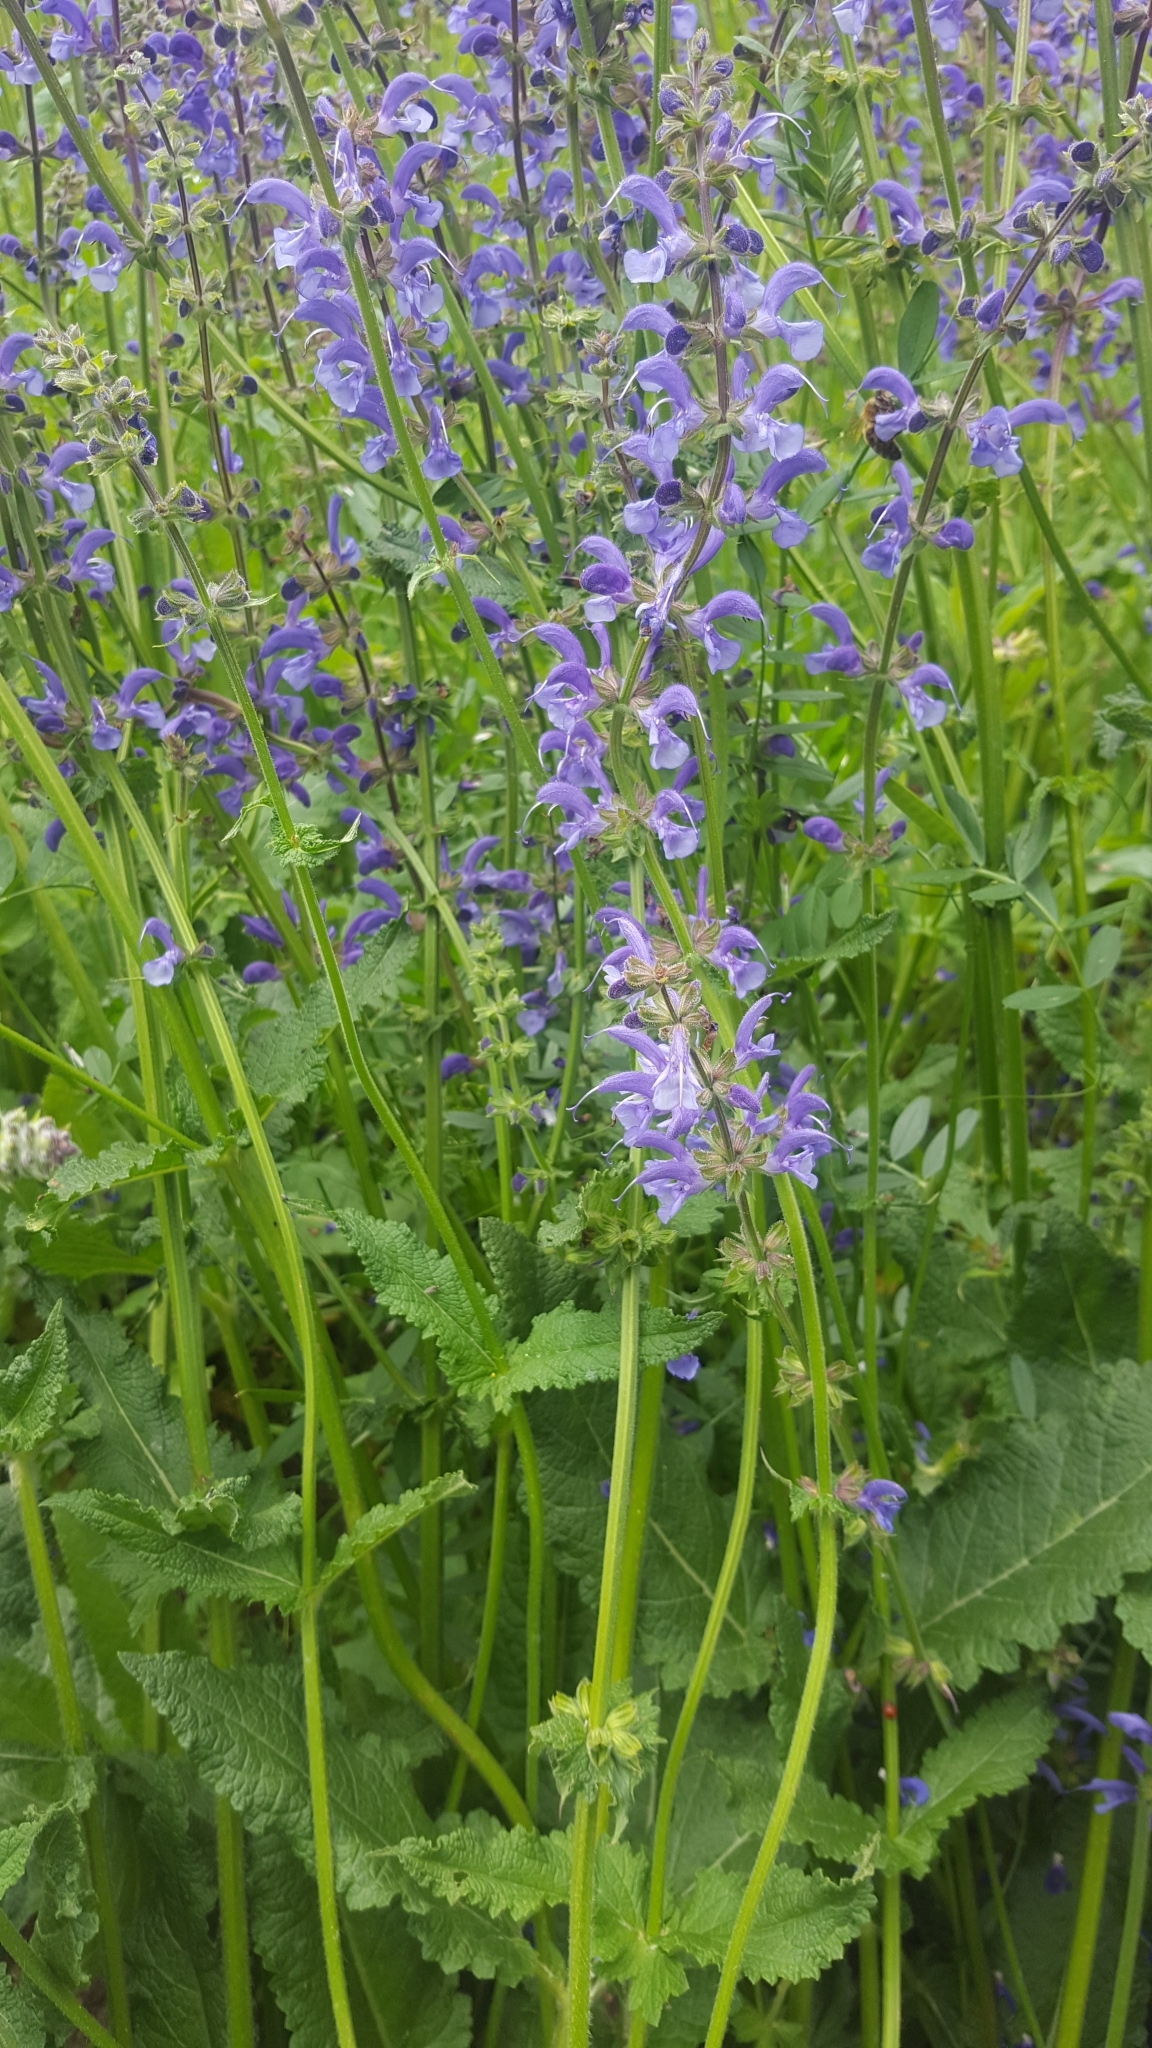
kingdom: Plantae
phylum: Tracheophyta
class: Magnoliopsida
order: Lamiales
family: Lamiaceae
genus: Salvia
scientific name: Salvia pratensis
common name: Meadow sage
